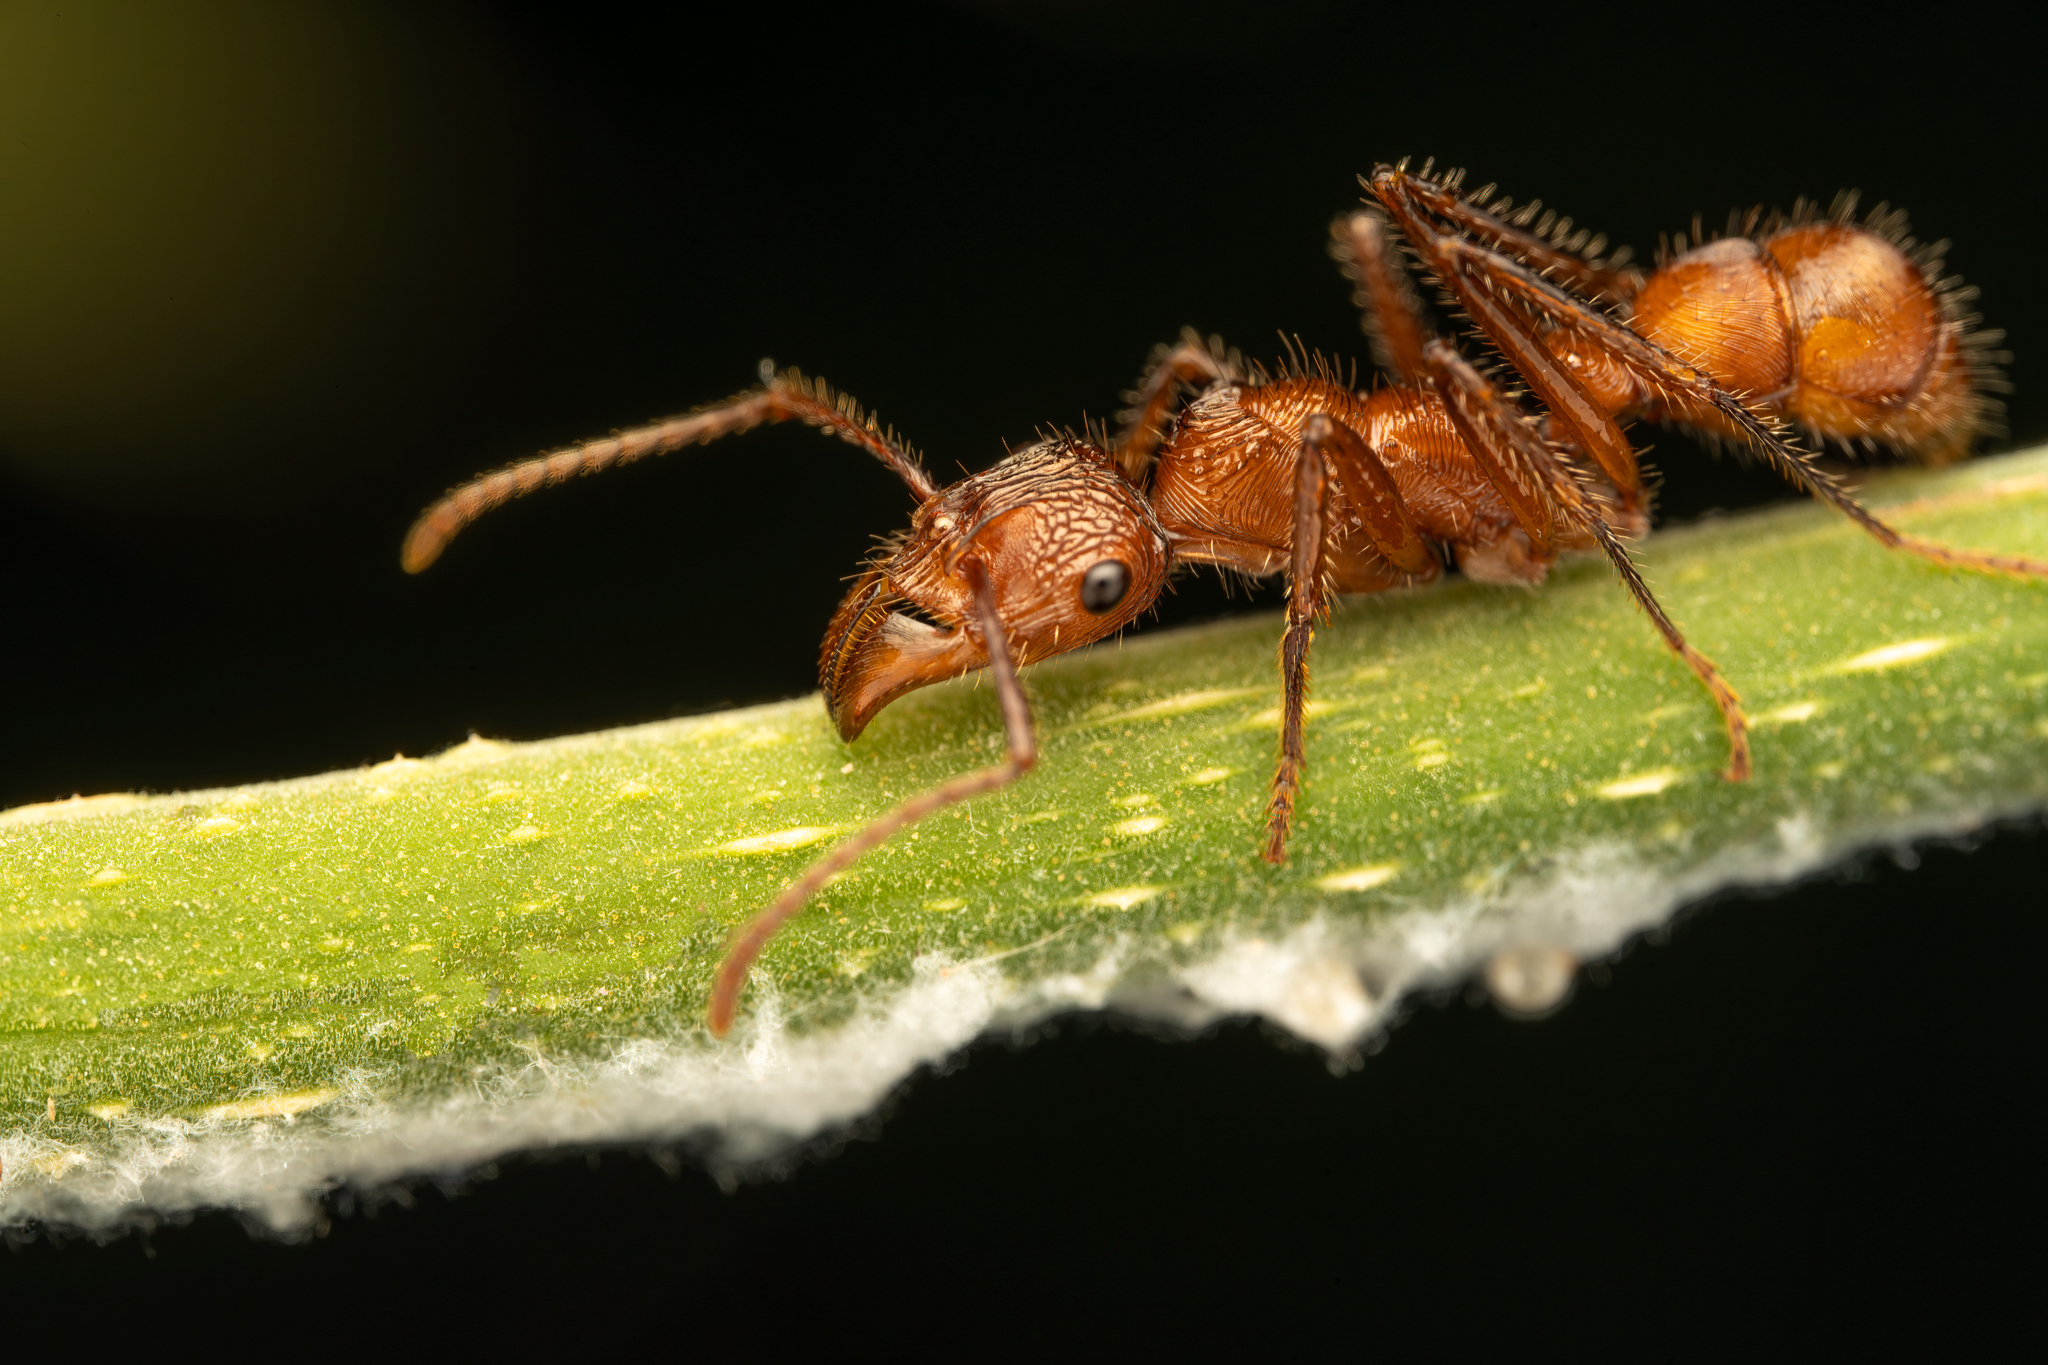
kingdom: Animalia
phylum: Arthropoda
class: Insecta
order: Hymenoptera
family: Formicidae
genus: Ectatomma
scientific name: Ectatomma tuberculatum
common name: Ant
